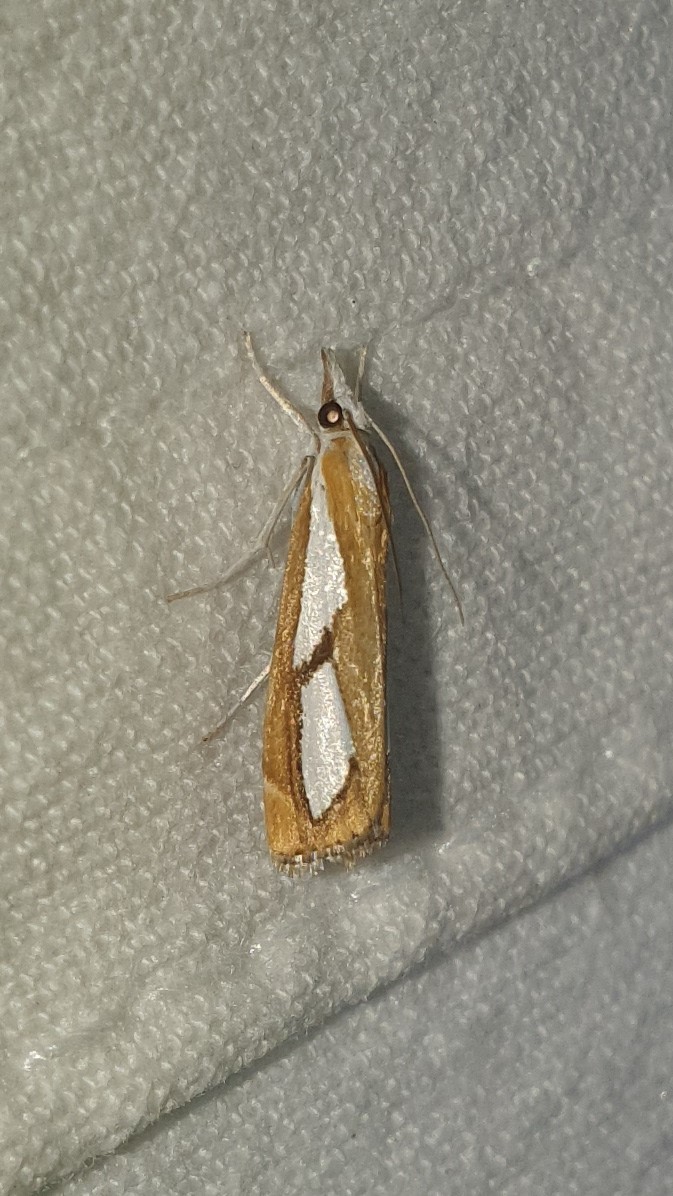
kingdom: Animalia
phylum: Arthropoda
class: Insecta
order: Lepidoptera
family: Crambidae
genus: Catoptria
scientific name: Catoptria pinella
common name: Pearl grass-veneer
